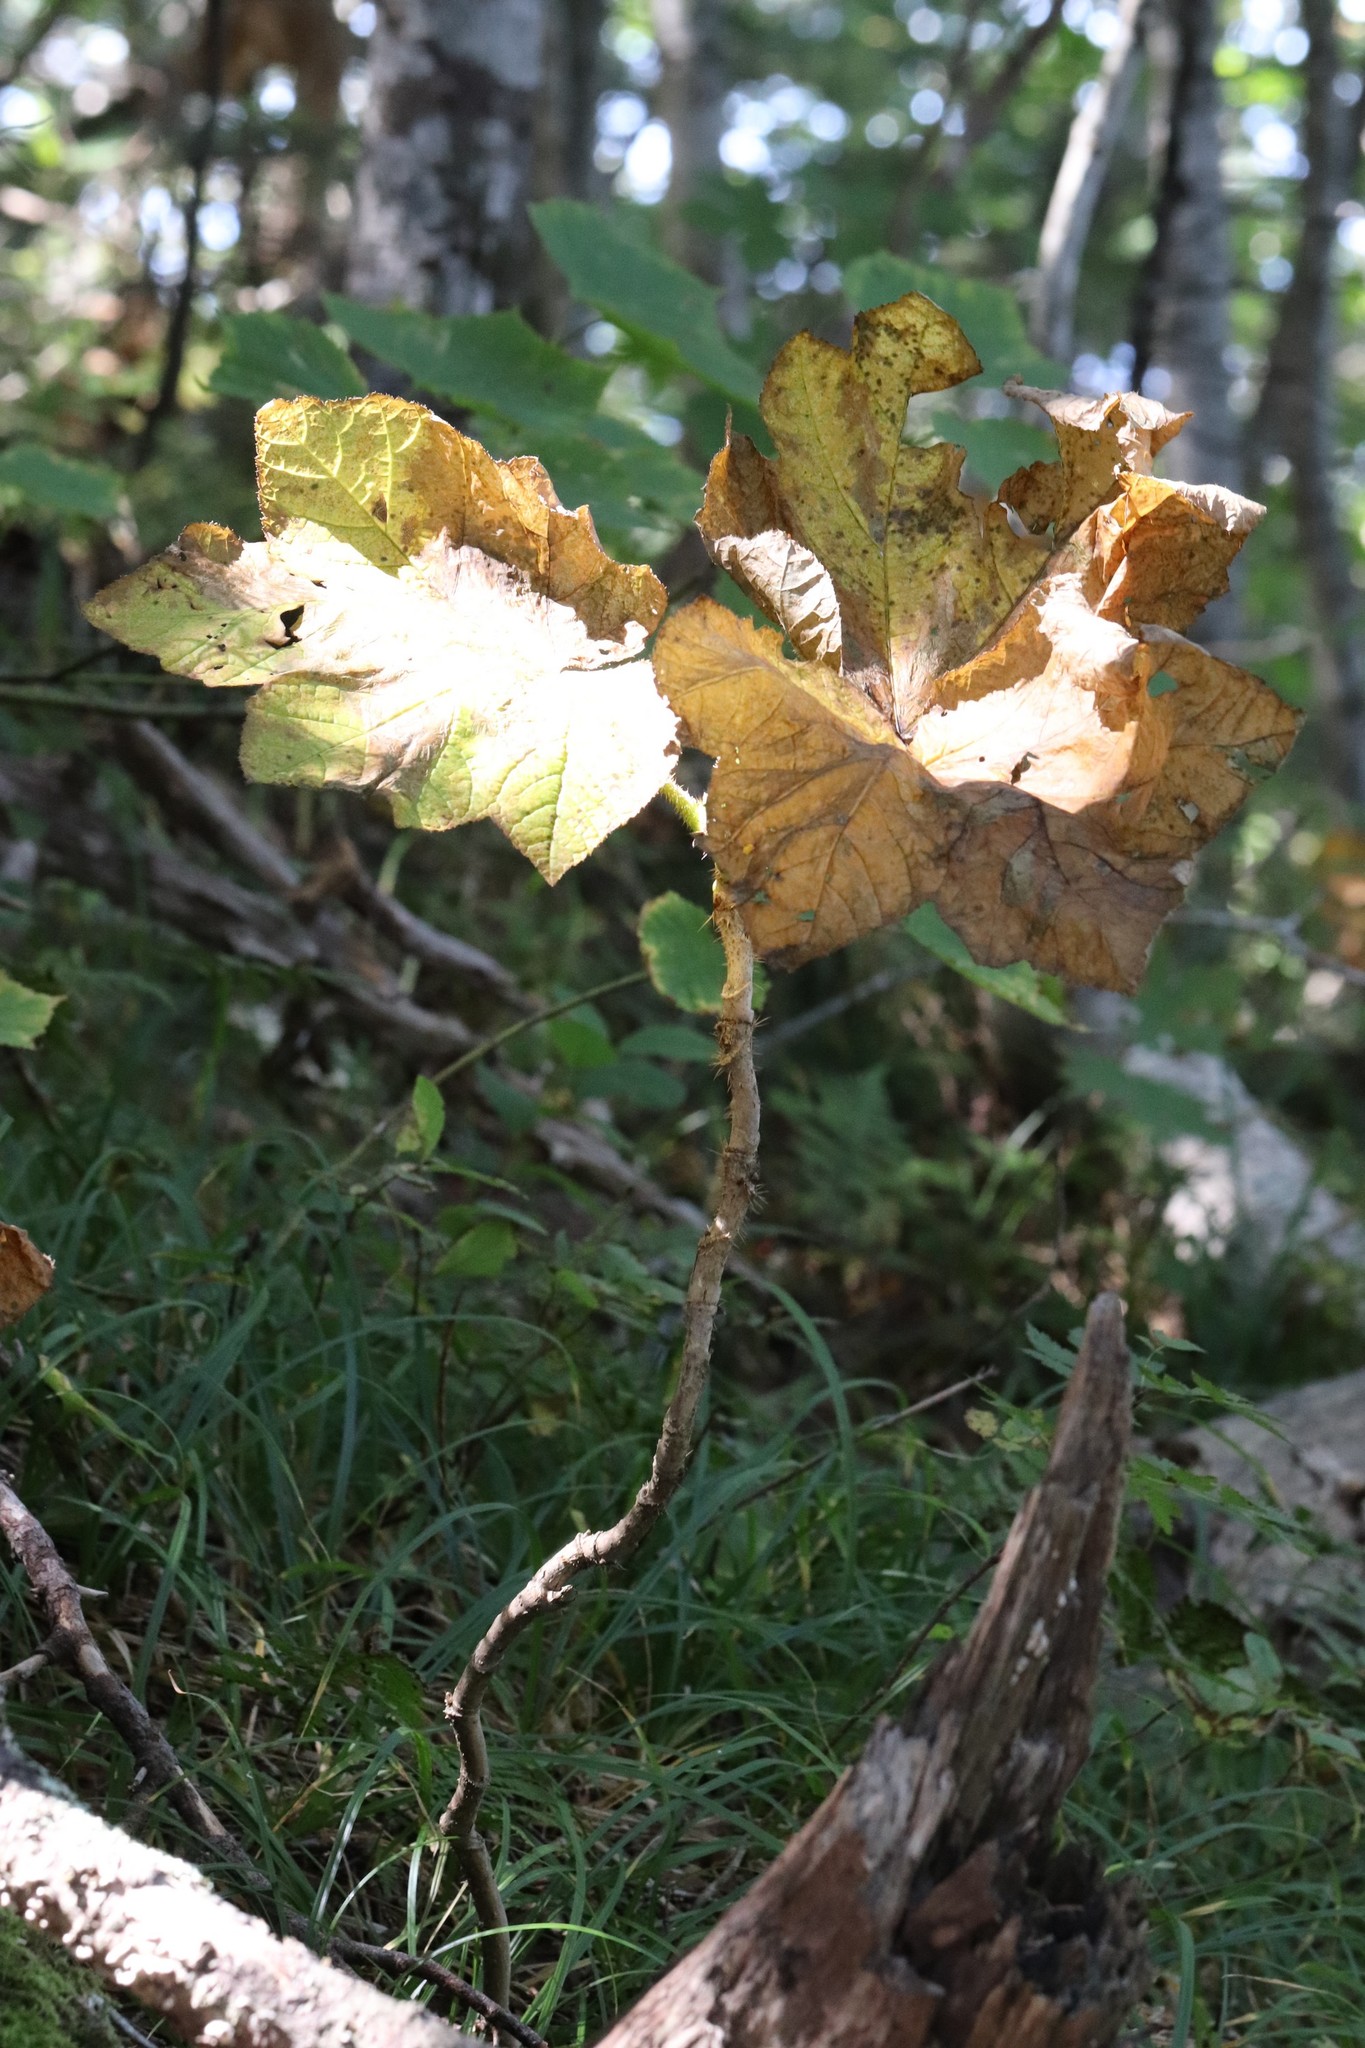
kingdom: Plantae
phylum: Tracheophyta
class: Magnoliopsida
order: Apiales
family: Araliaceae
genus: Oplopanax
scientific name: Oplopanax elatus
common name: Japanese devil's-club
